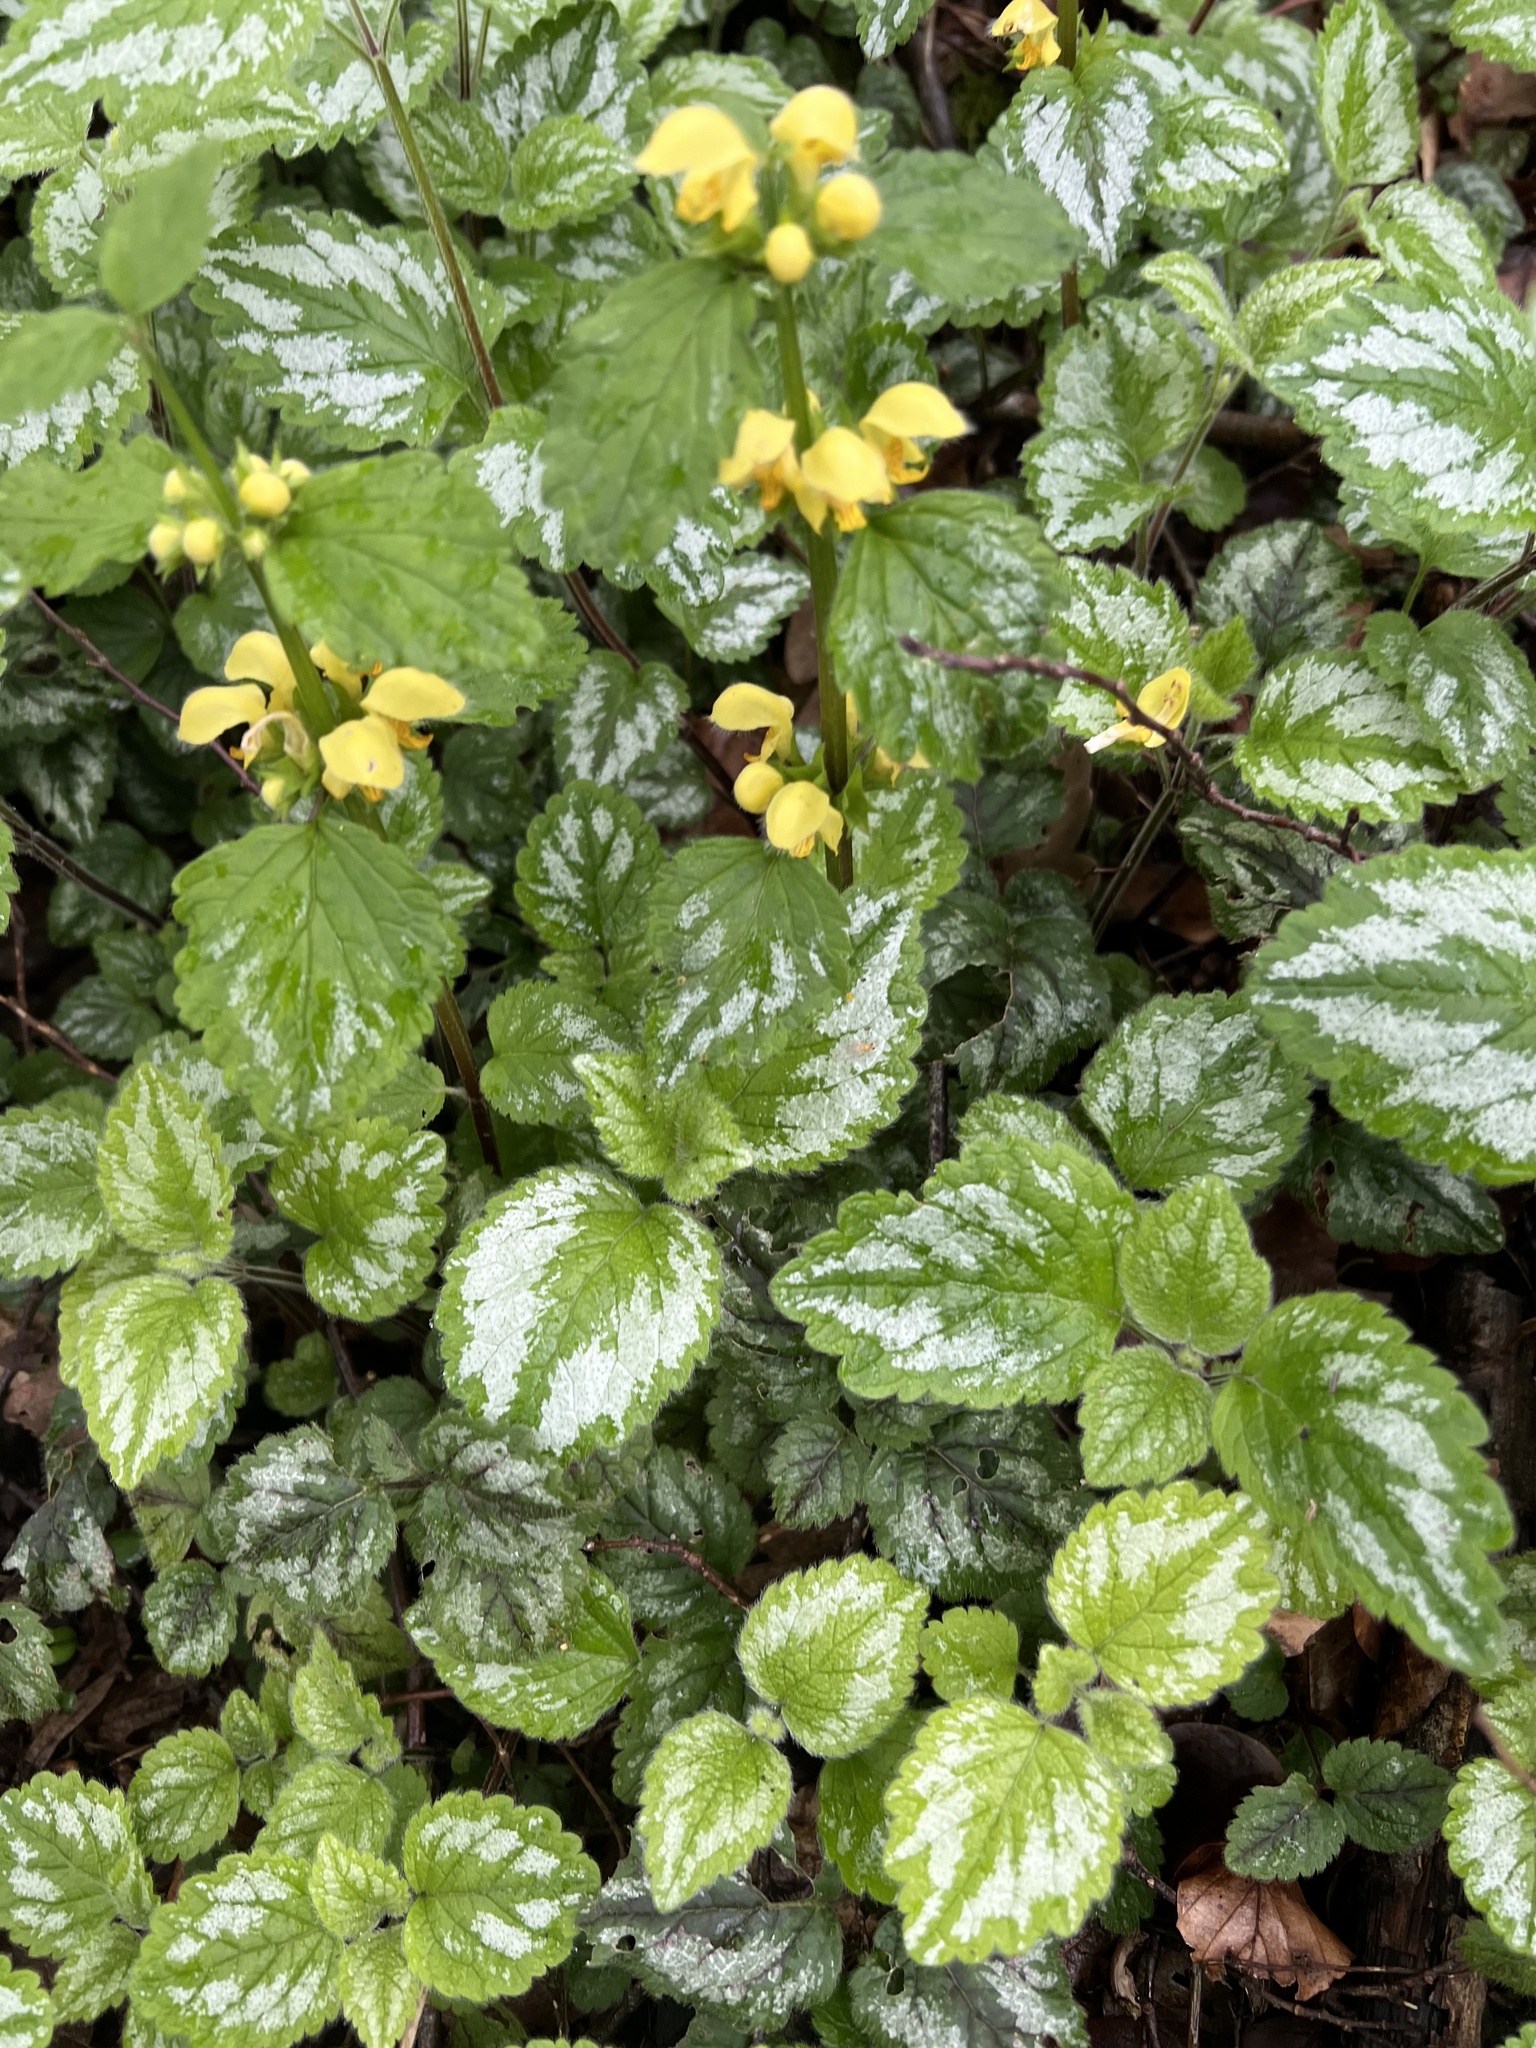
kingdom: Plantae
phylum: Tracheophyta
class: Magnoliopsida
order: Lamiales
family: Lamiaceae
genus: Lamium
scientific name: Lamium galeobdolon
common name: Yellow archangel
